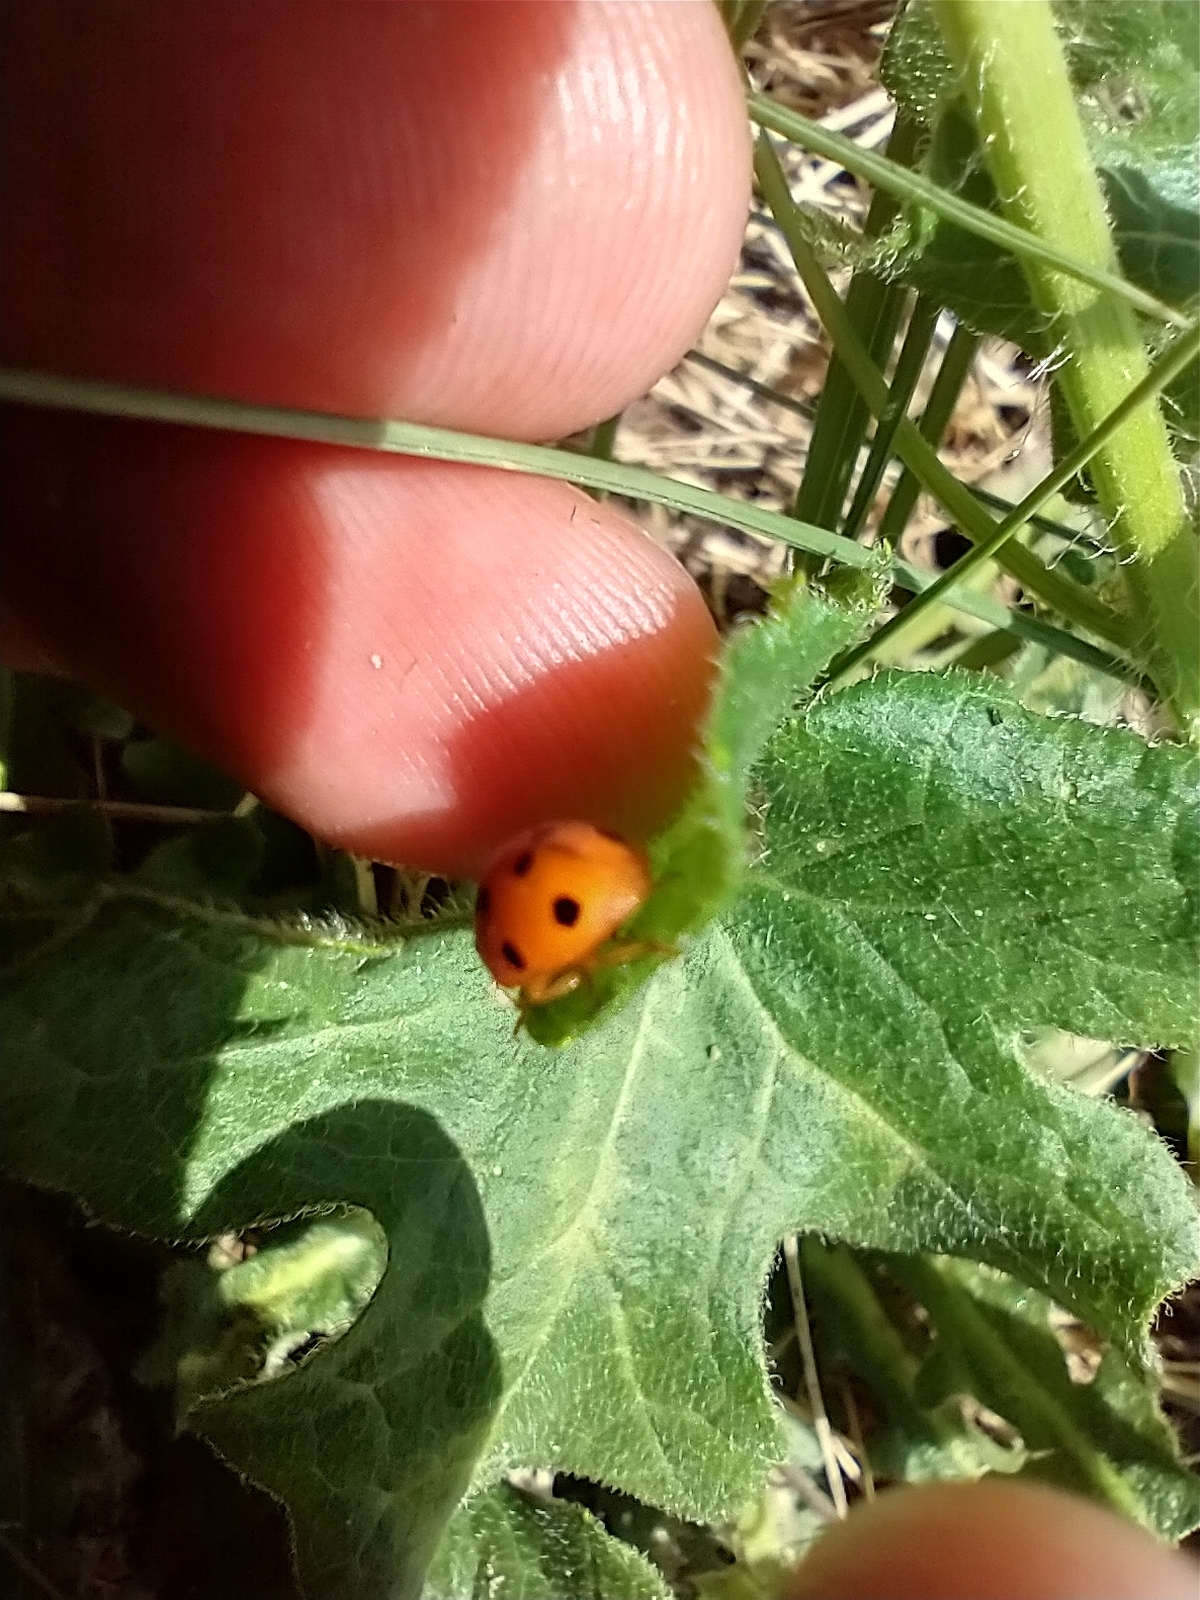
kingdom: Animalia
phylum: Arthropoda
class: Insecta
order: Coleoptera
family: Coccinellidae
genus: Henosepilachna
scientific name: Henosepilachna argus
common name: Bryony ladybird
